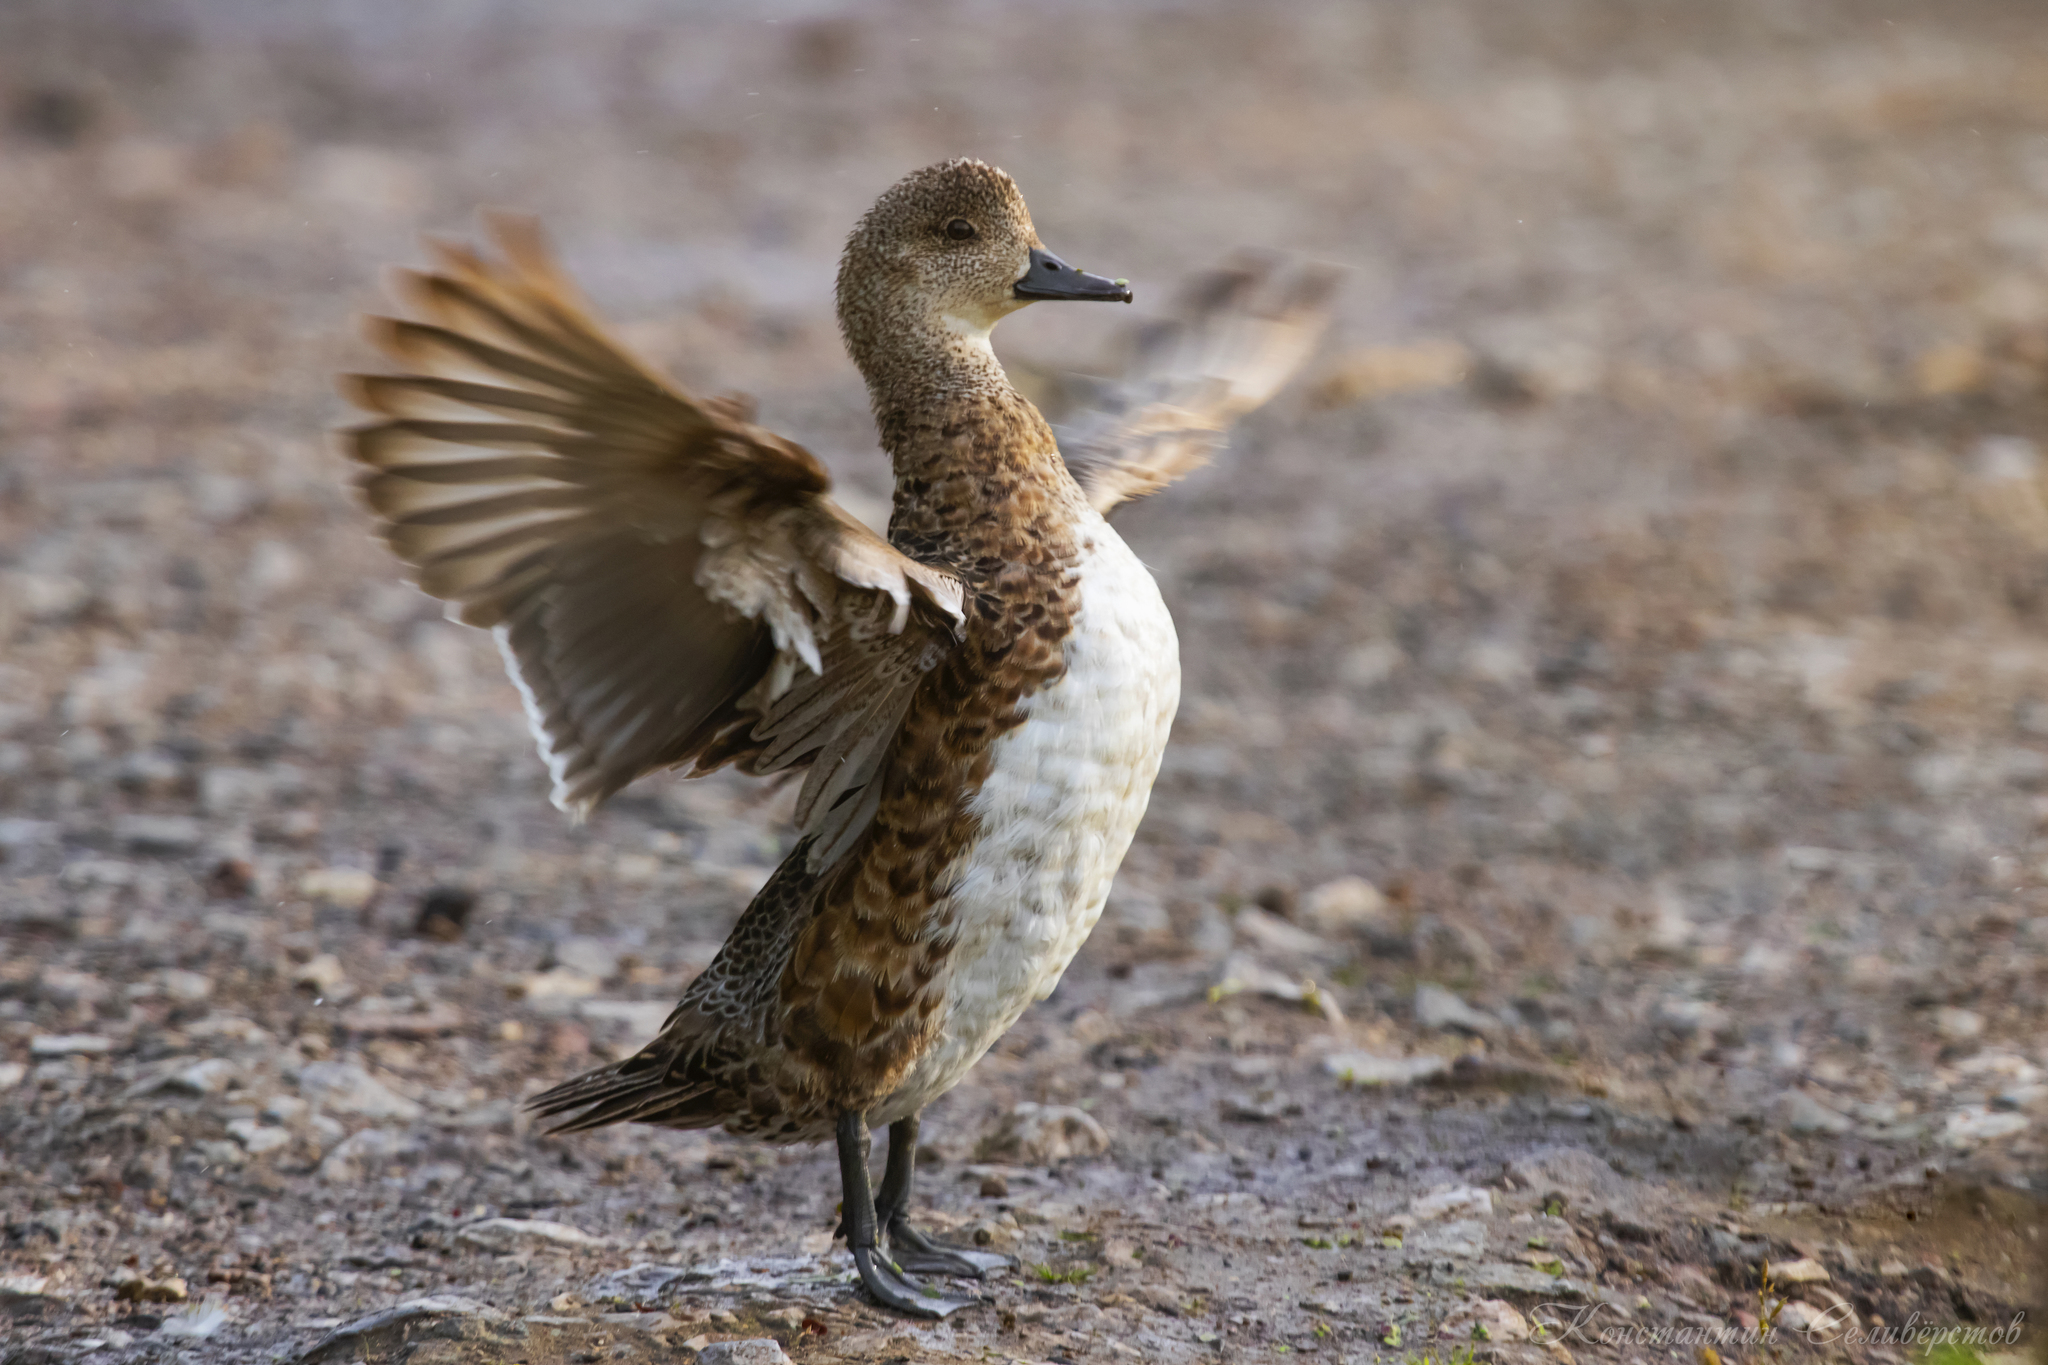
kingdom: Animalia
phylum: Chordata
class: Aves
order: Anseriformes
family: Anatidae
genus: Mareca
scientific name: Mareca penelope
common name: Eurasian wigeon
